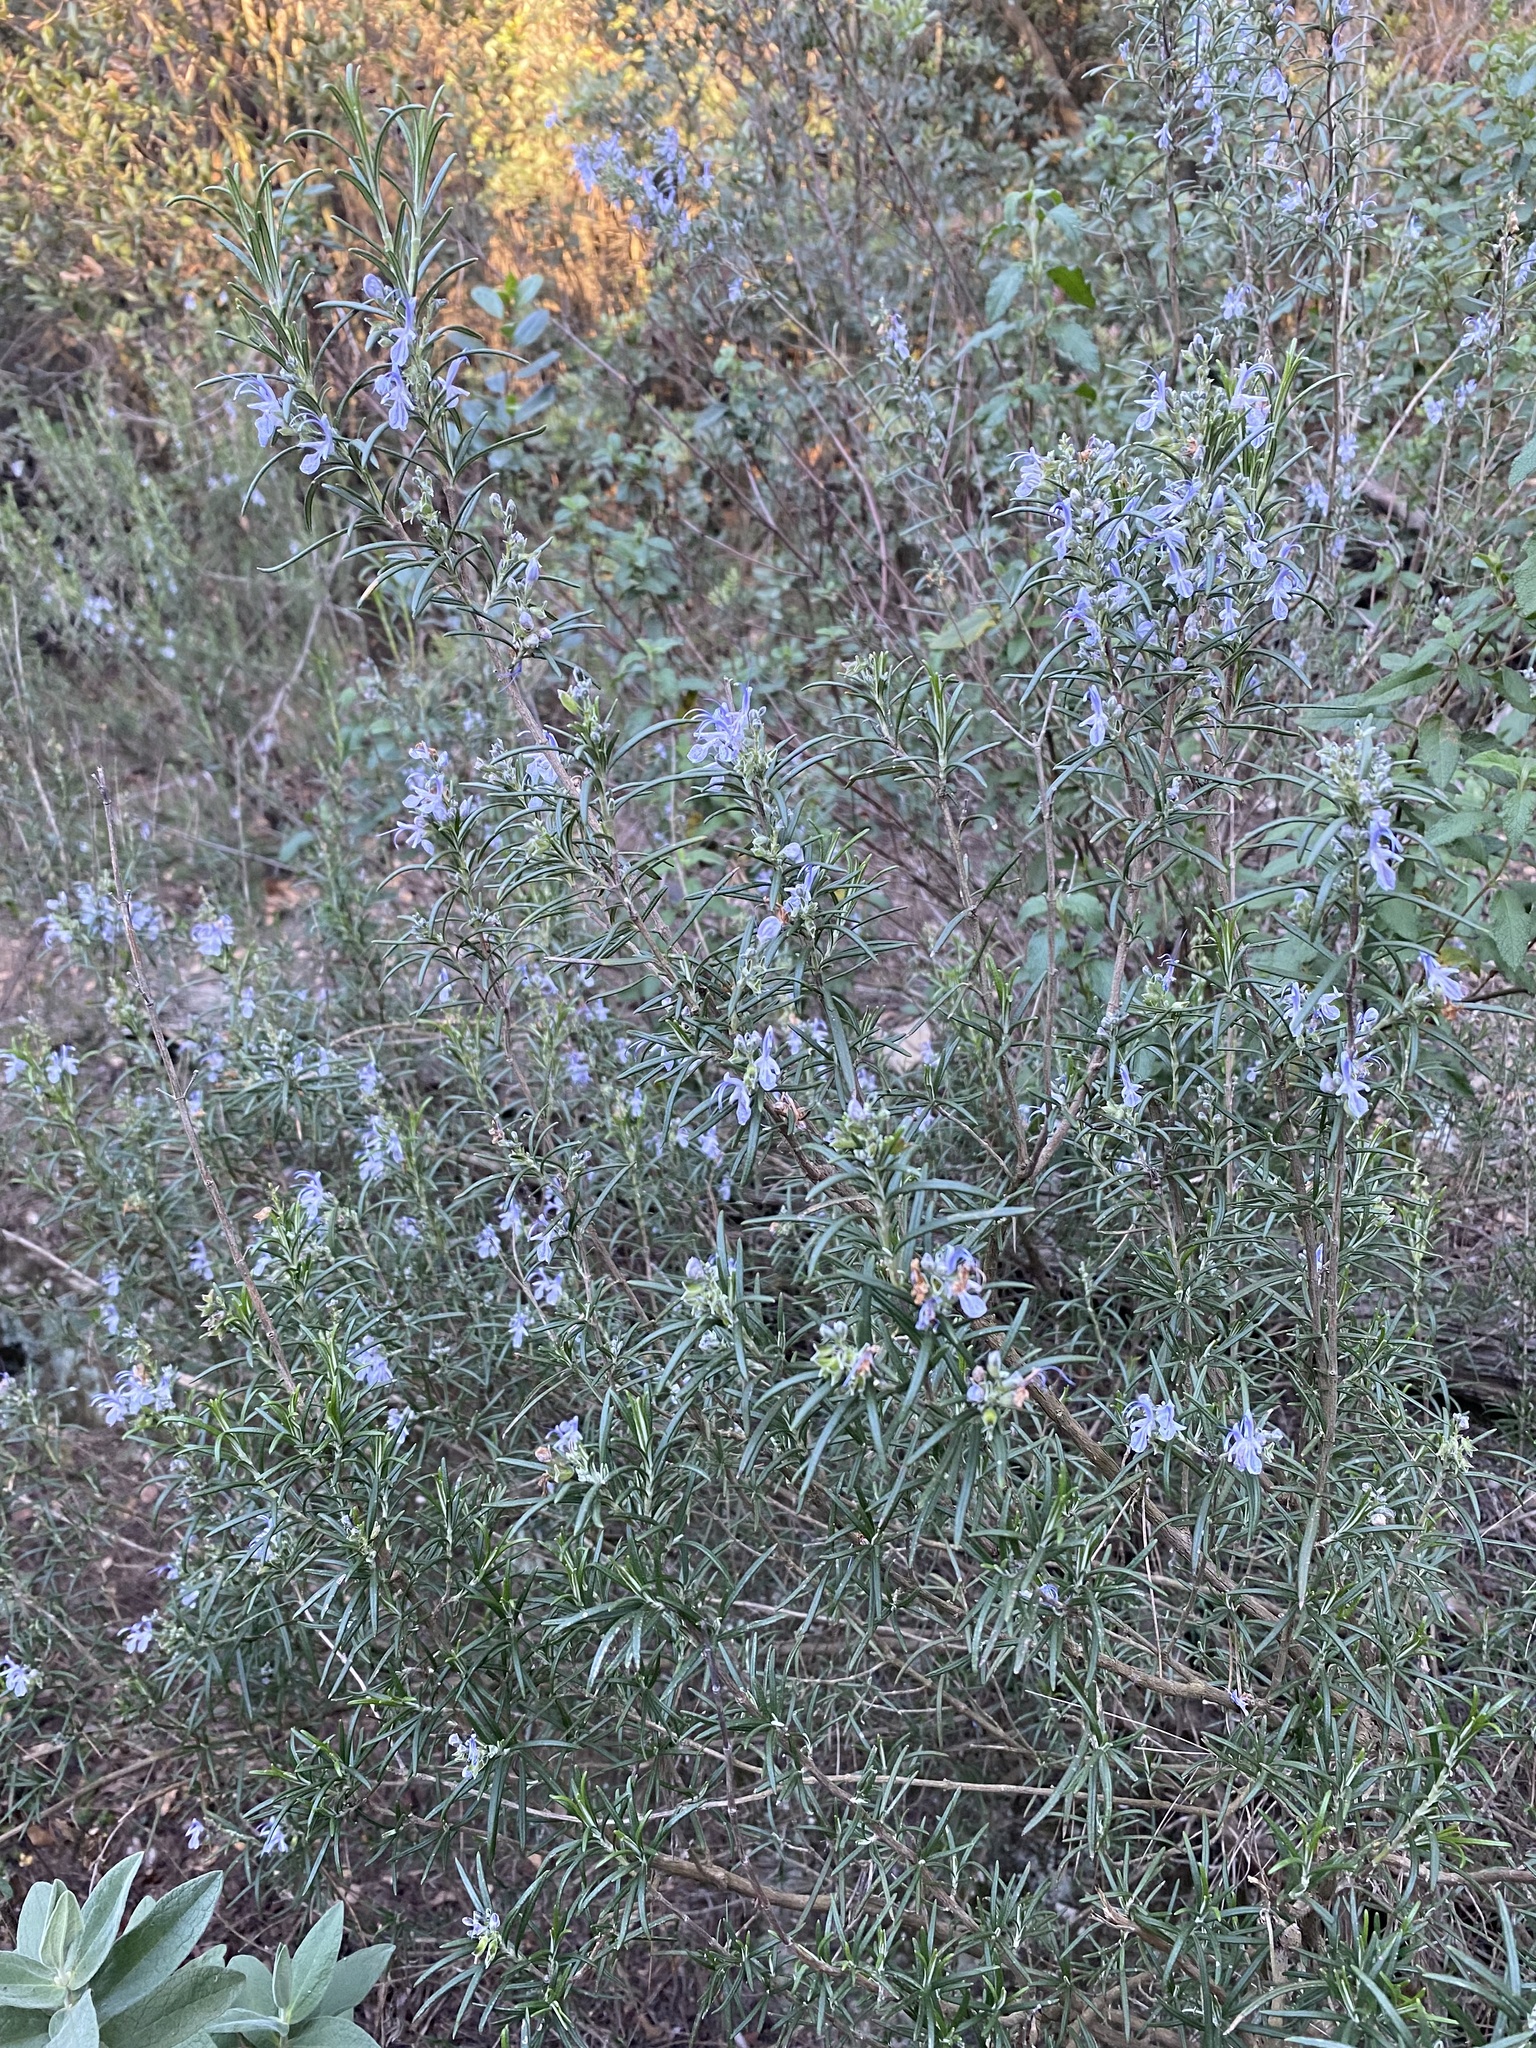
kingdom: Plantae
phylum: Tracheophyta
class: Magnoliopsida
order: Lamiales
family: Lamiaceae
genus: Salvia
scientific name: Salvia rosmarinus
